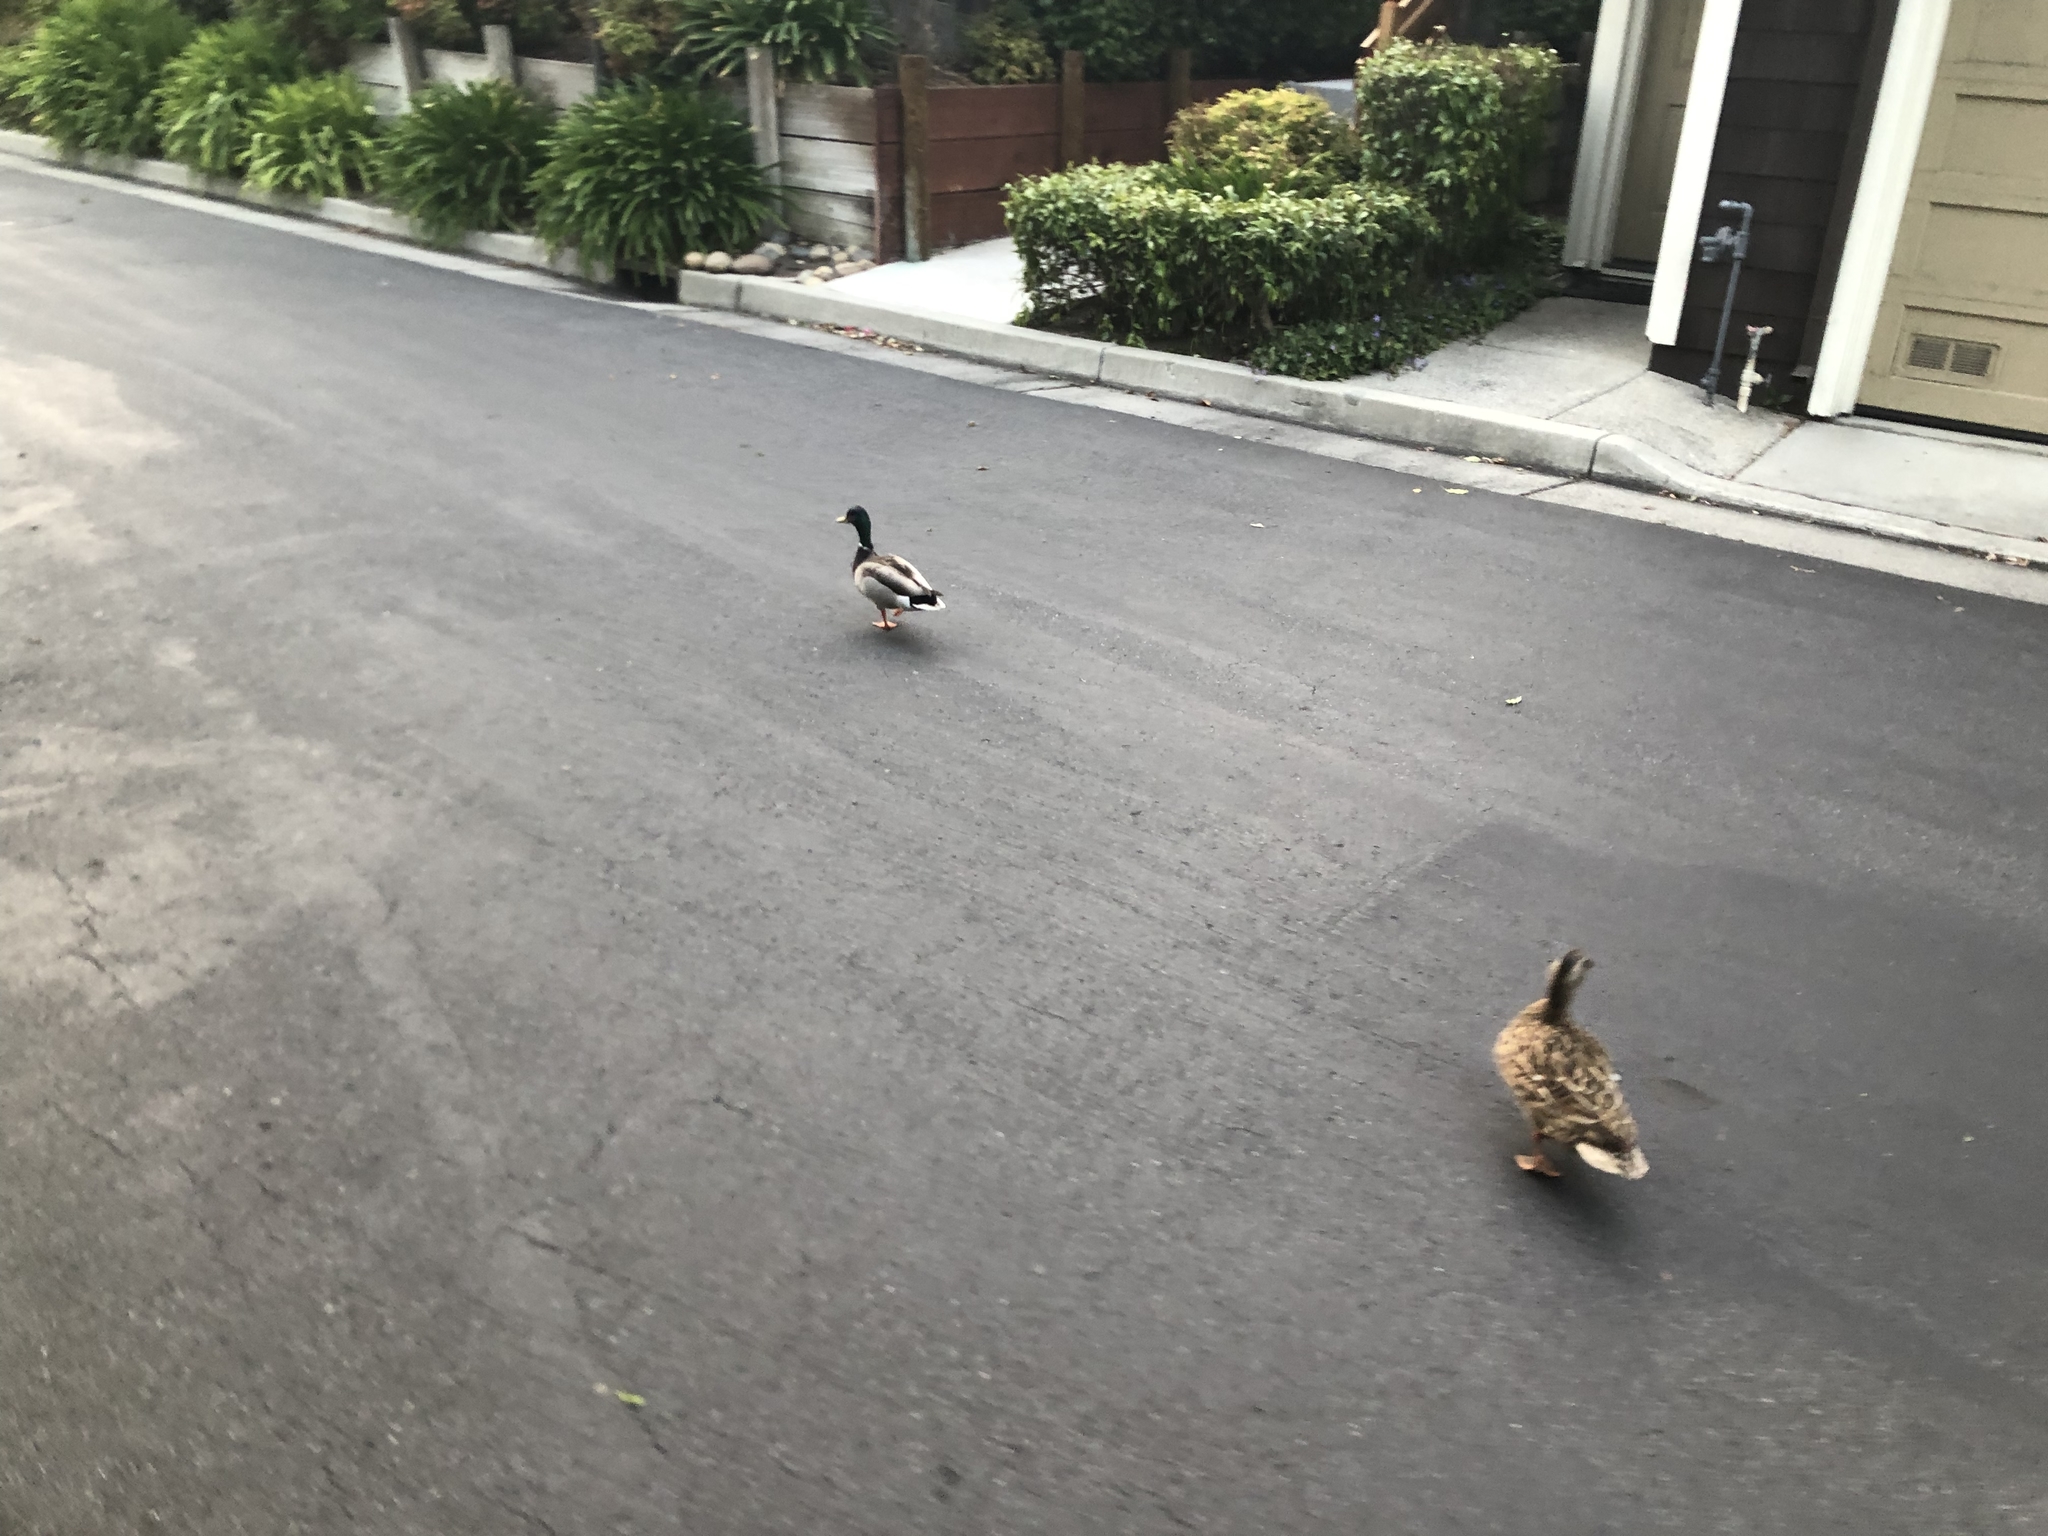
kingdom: Animalia
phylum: Chordata
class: Aves
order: Anseriformes
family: Anatidae
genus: Anas
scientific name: Anas platyrhynchos
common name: Mallard
